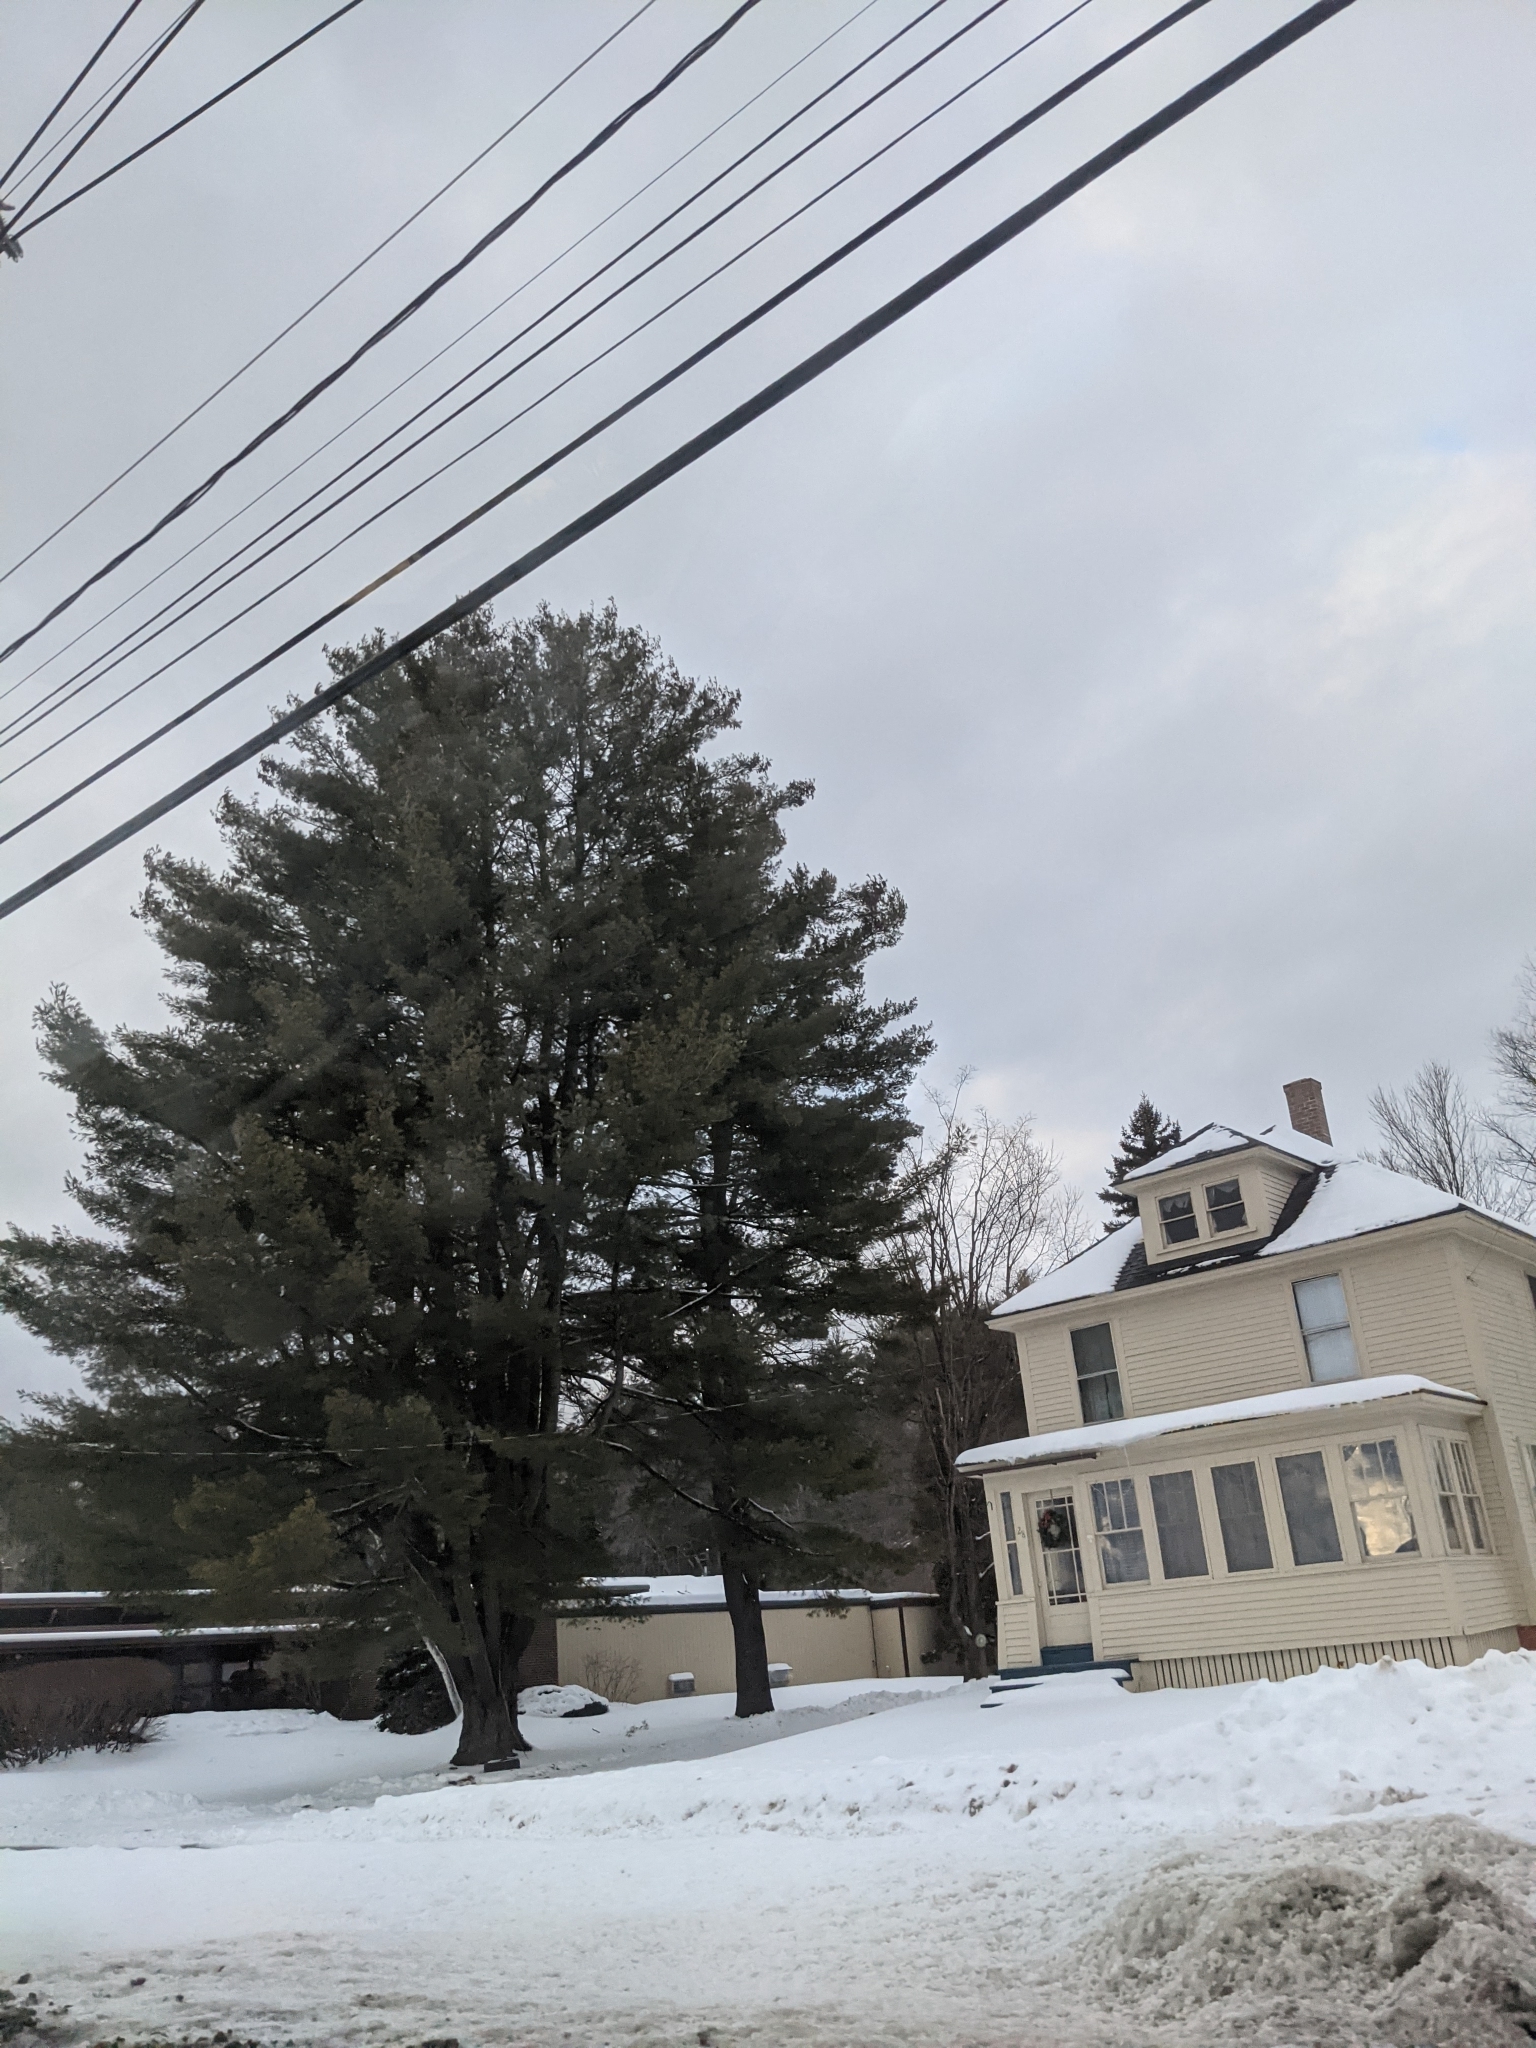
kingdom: Plantae
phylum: Tracheophyta
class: Pinopsida
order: Pinales
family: Pinaceae
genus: Pinus
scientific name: Pinus strobus
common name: Weymouth pine
